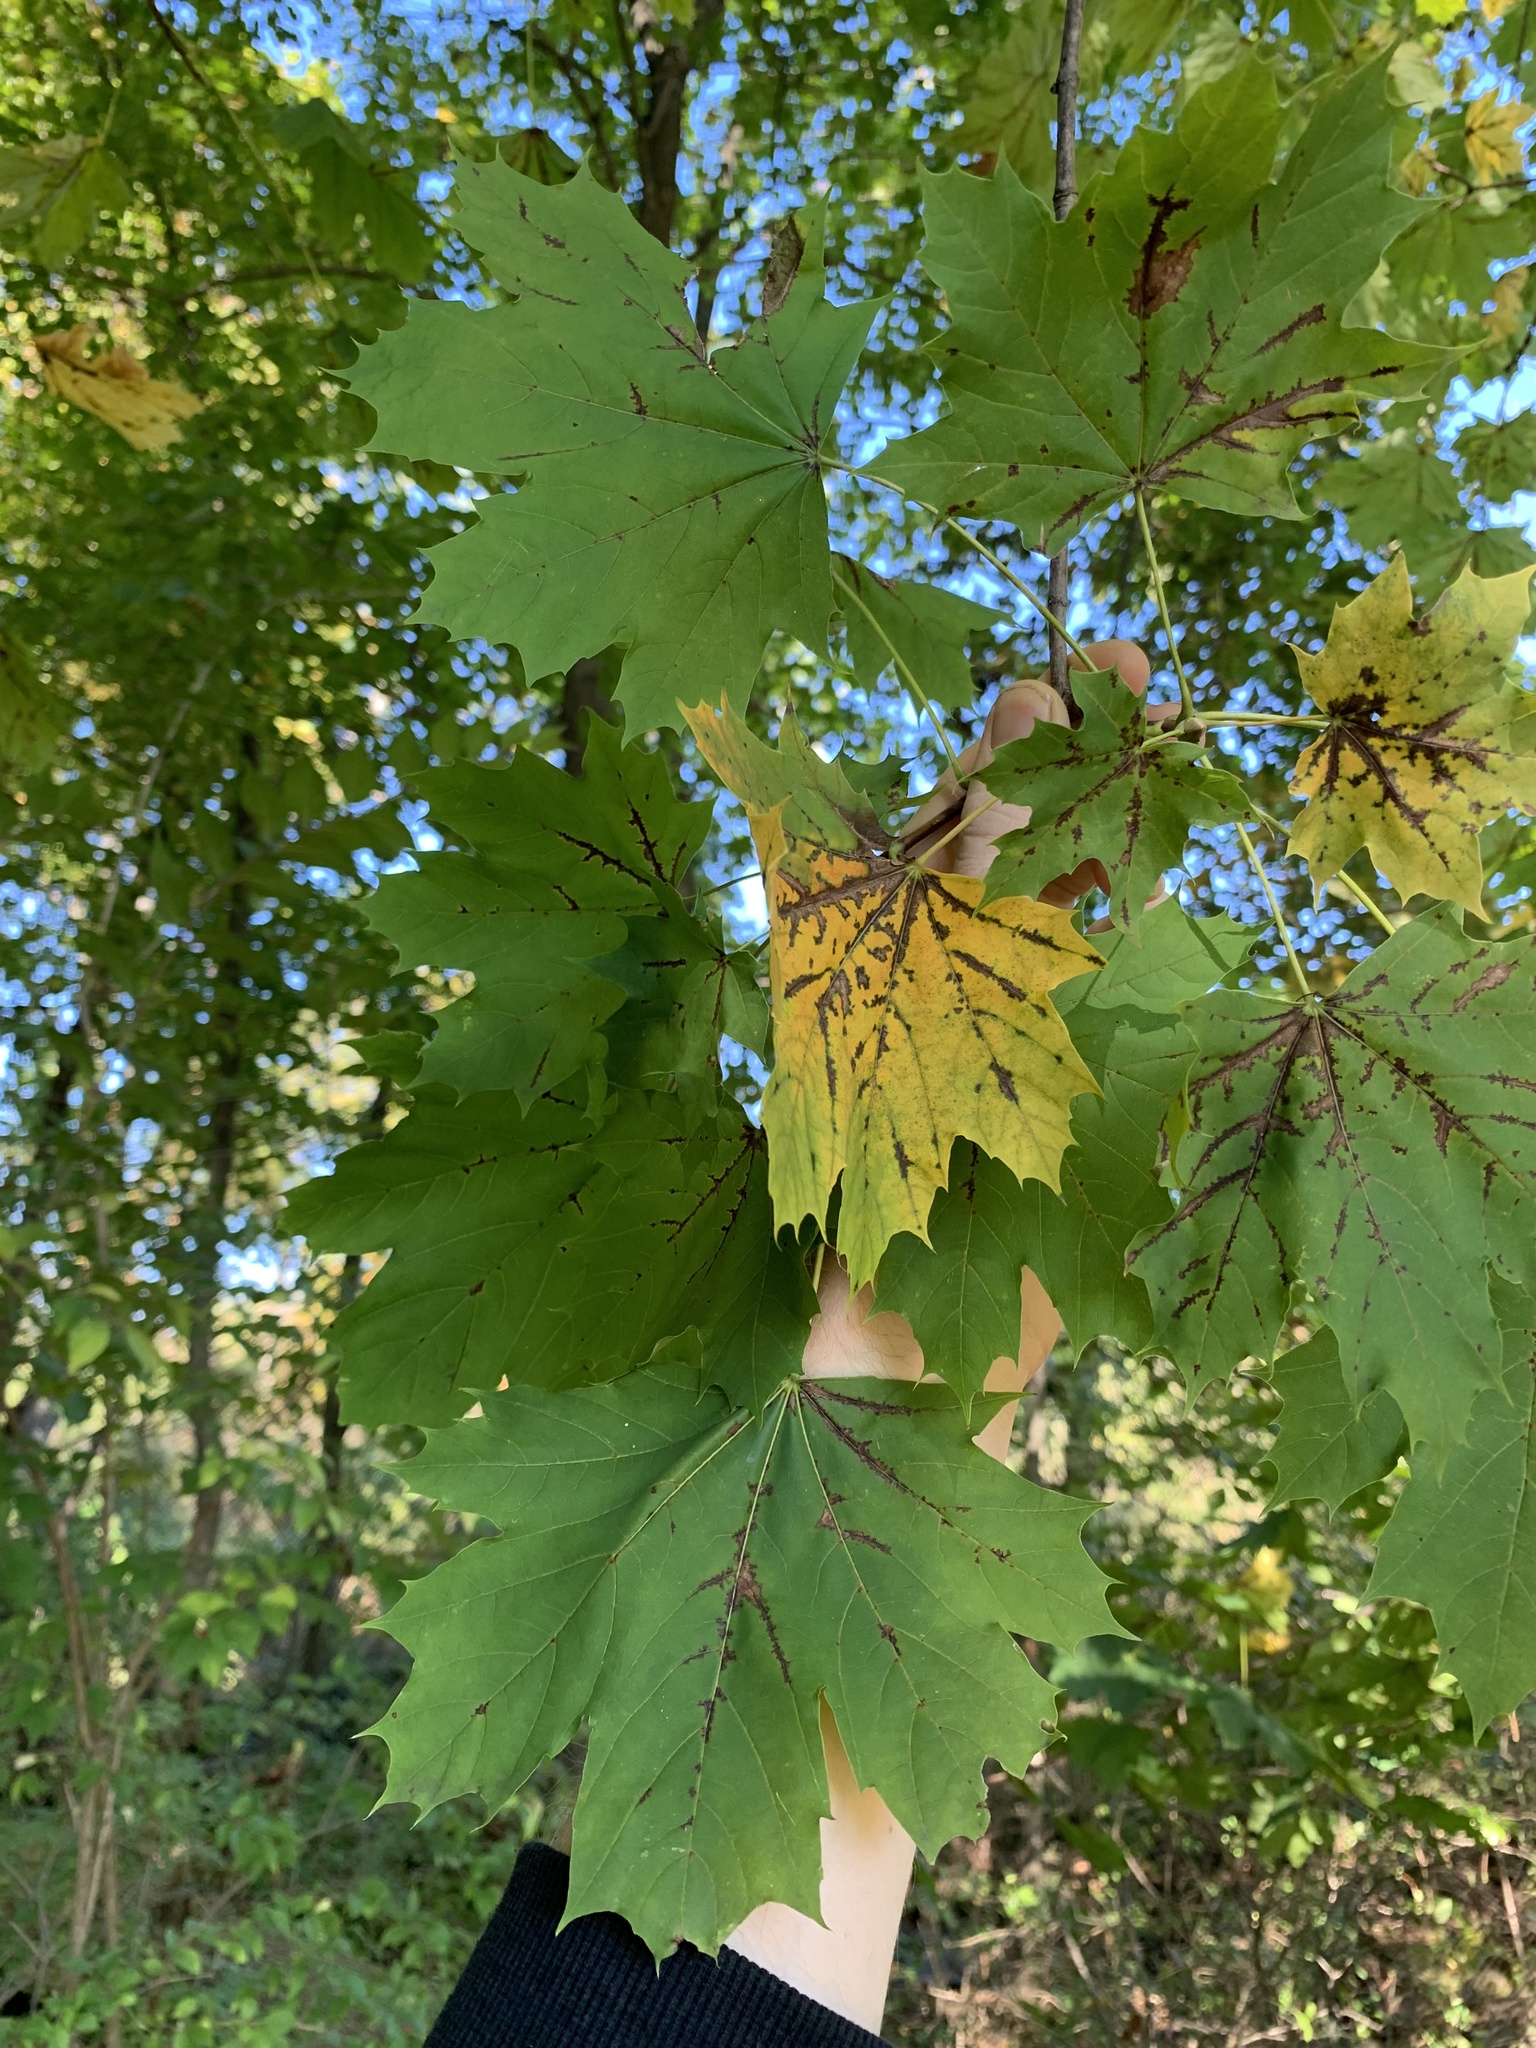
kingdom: Plantae
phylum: Tracheophyta
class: Magnoliopsida
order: Sapindales
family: Sapindaceae
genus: Acer
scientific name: Acer platanoides
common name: Norway maple
